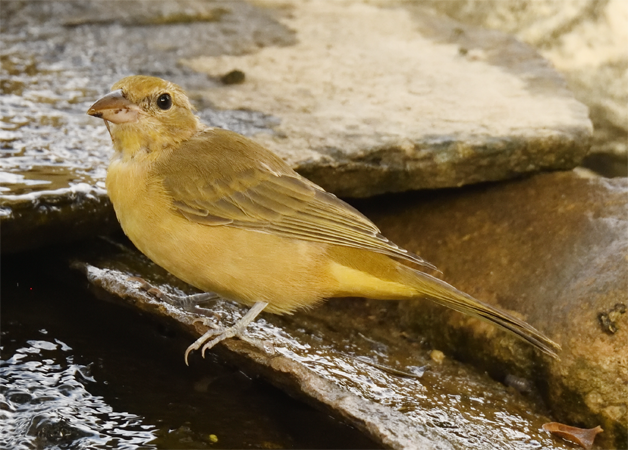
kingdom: Animalia
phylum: Chordata
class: Aves
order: Passeriformes
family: Cardinalidae
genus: Piranga
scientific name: Piranga rubra
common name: Summer tanager
